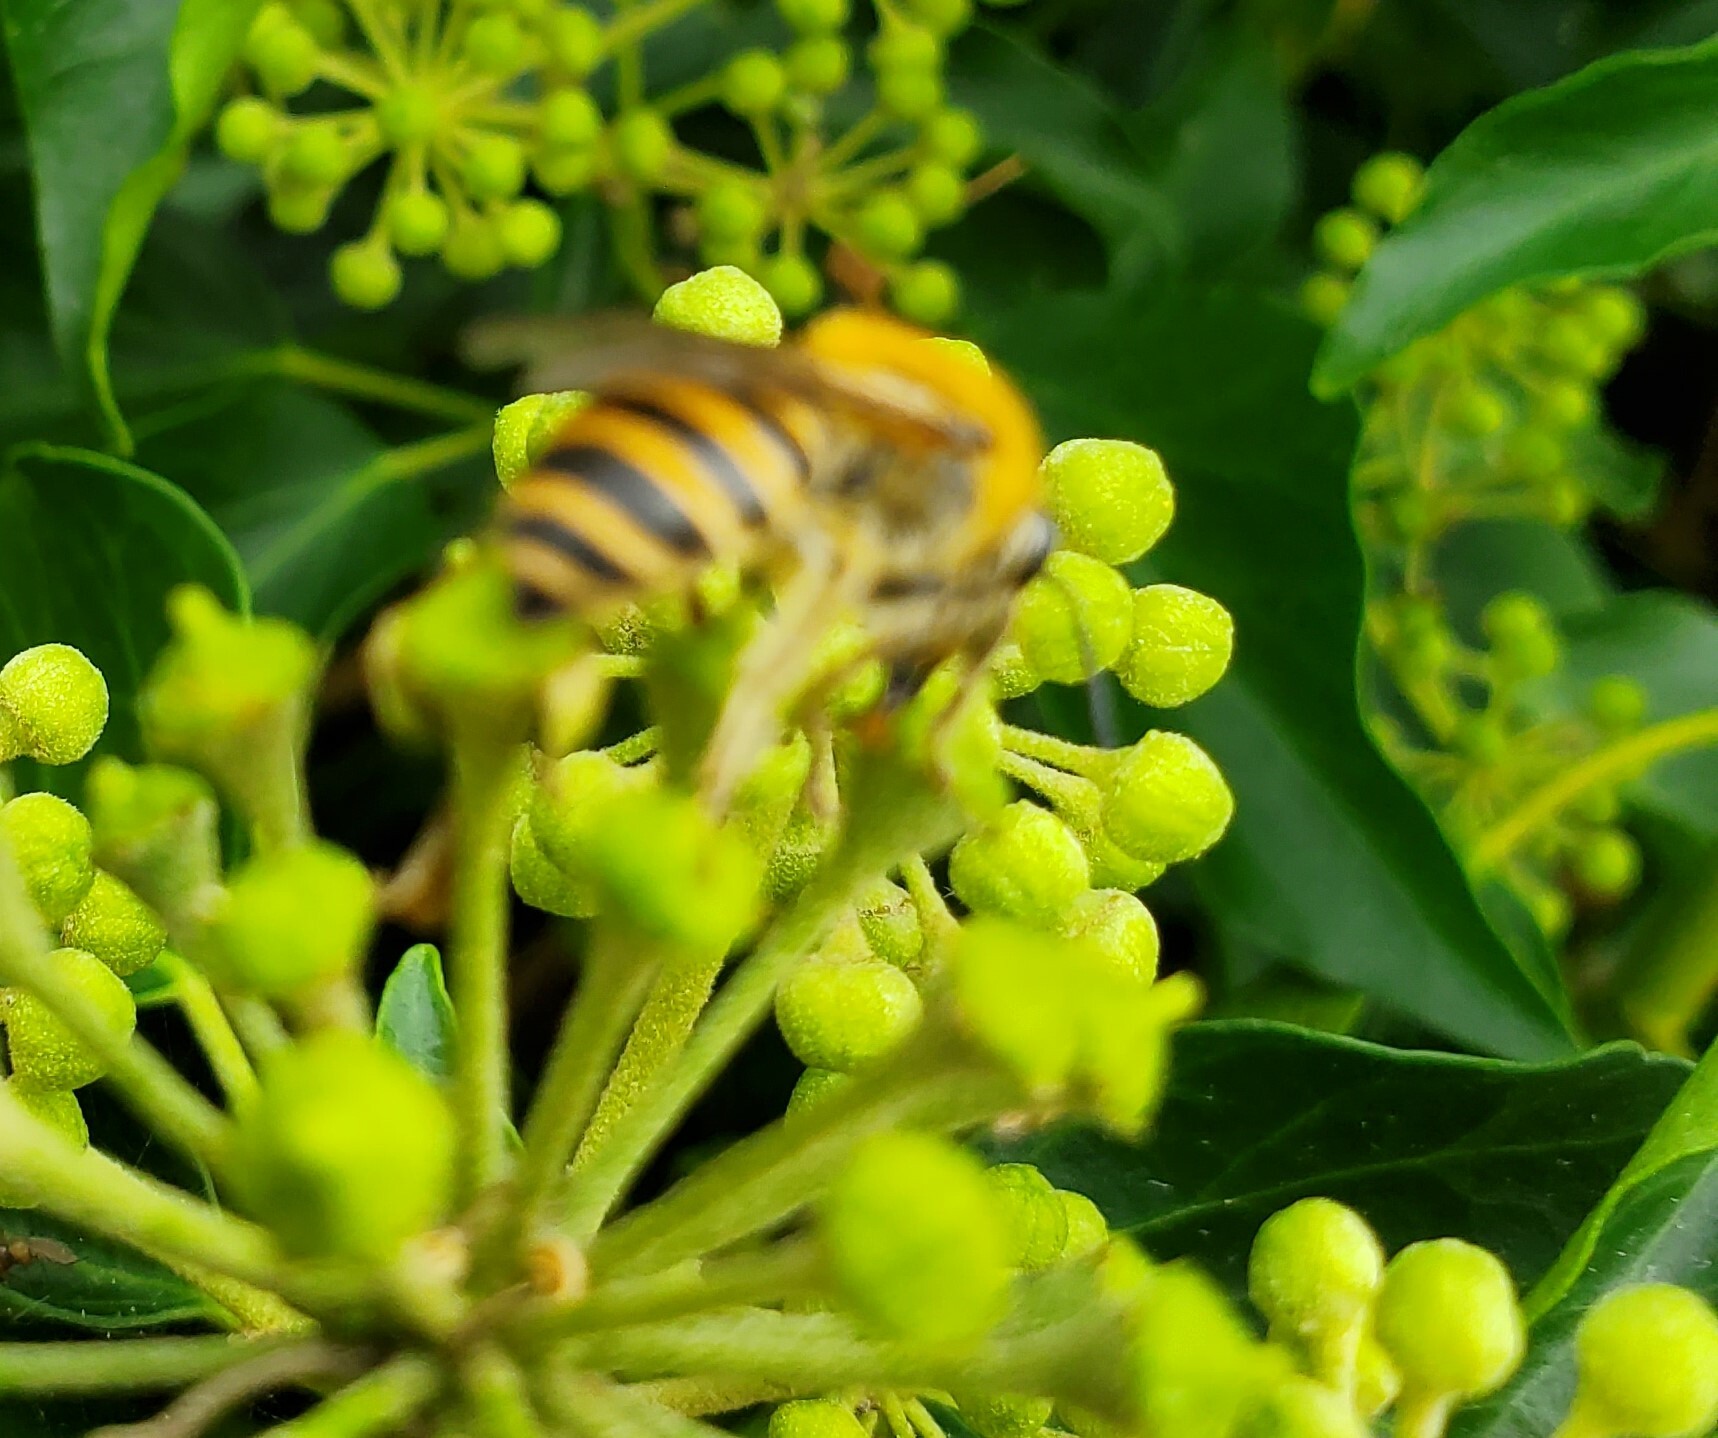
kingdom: Animalia
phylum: Arthropoda
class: Insecta
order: Hymenoptera
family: Colletidae
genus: Colletes
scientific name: Colletes hederae
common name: Ivy bee
